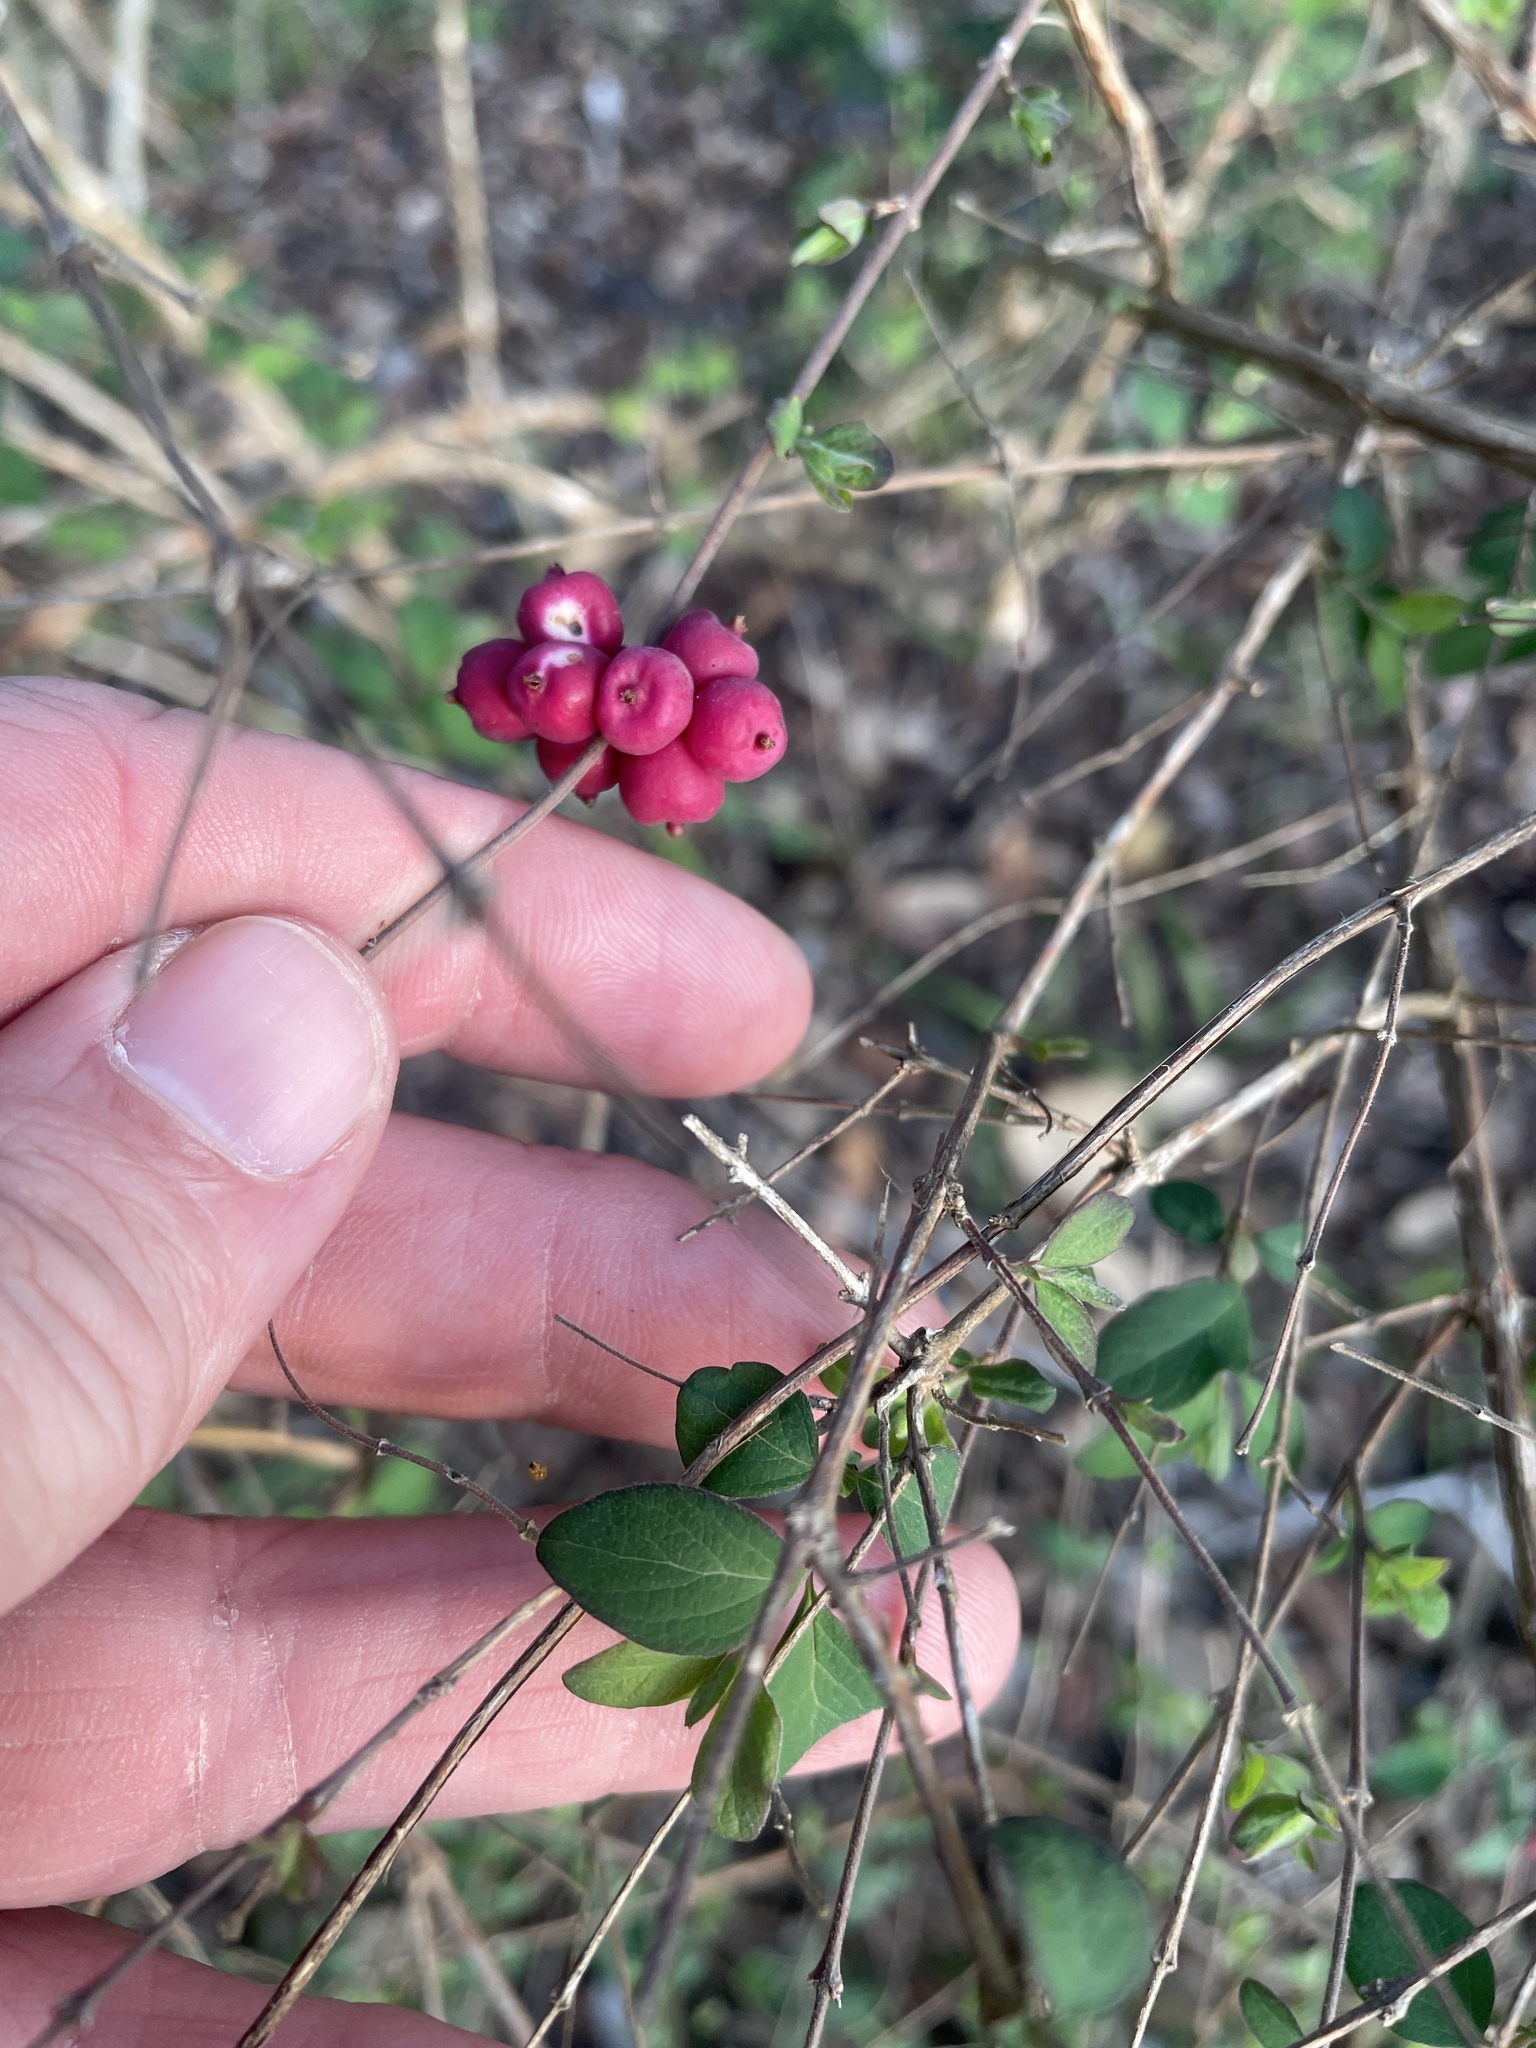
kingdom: Plantae
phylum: Tracheophyta
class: Magnoliopsida
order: Dipsacales
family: Caprifoliaceae
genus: Symphoricarpos
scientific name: Symphoricarpos orbiculatus
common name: Coralberry
